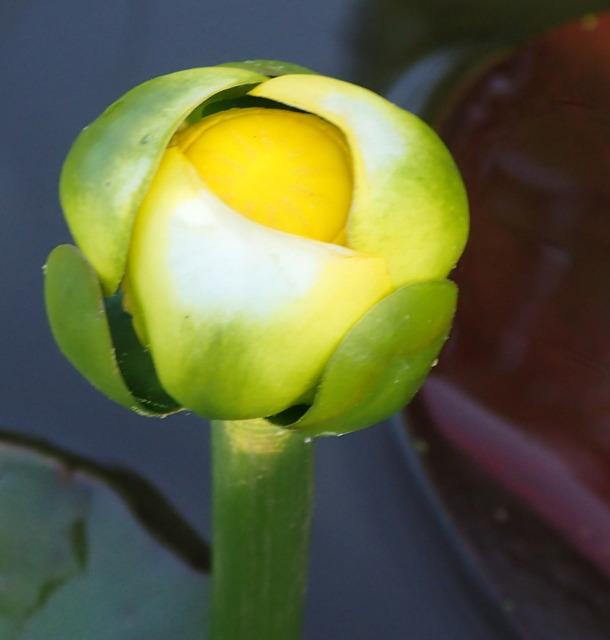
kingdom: Plantae
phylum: Tracheophyta
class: Magnoliopsida
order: Nymphaeales
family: Nymphaeaceae
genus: Nuphar
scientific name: Nuphar advena
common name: Spatter-dock
